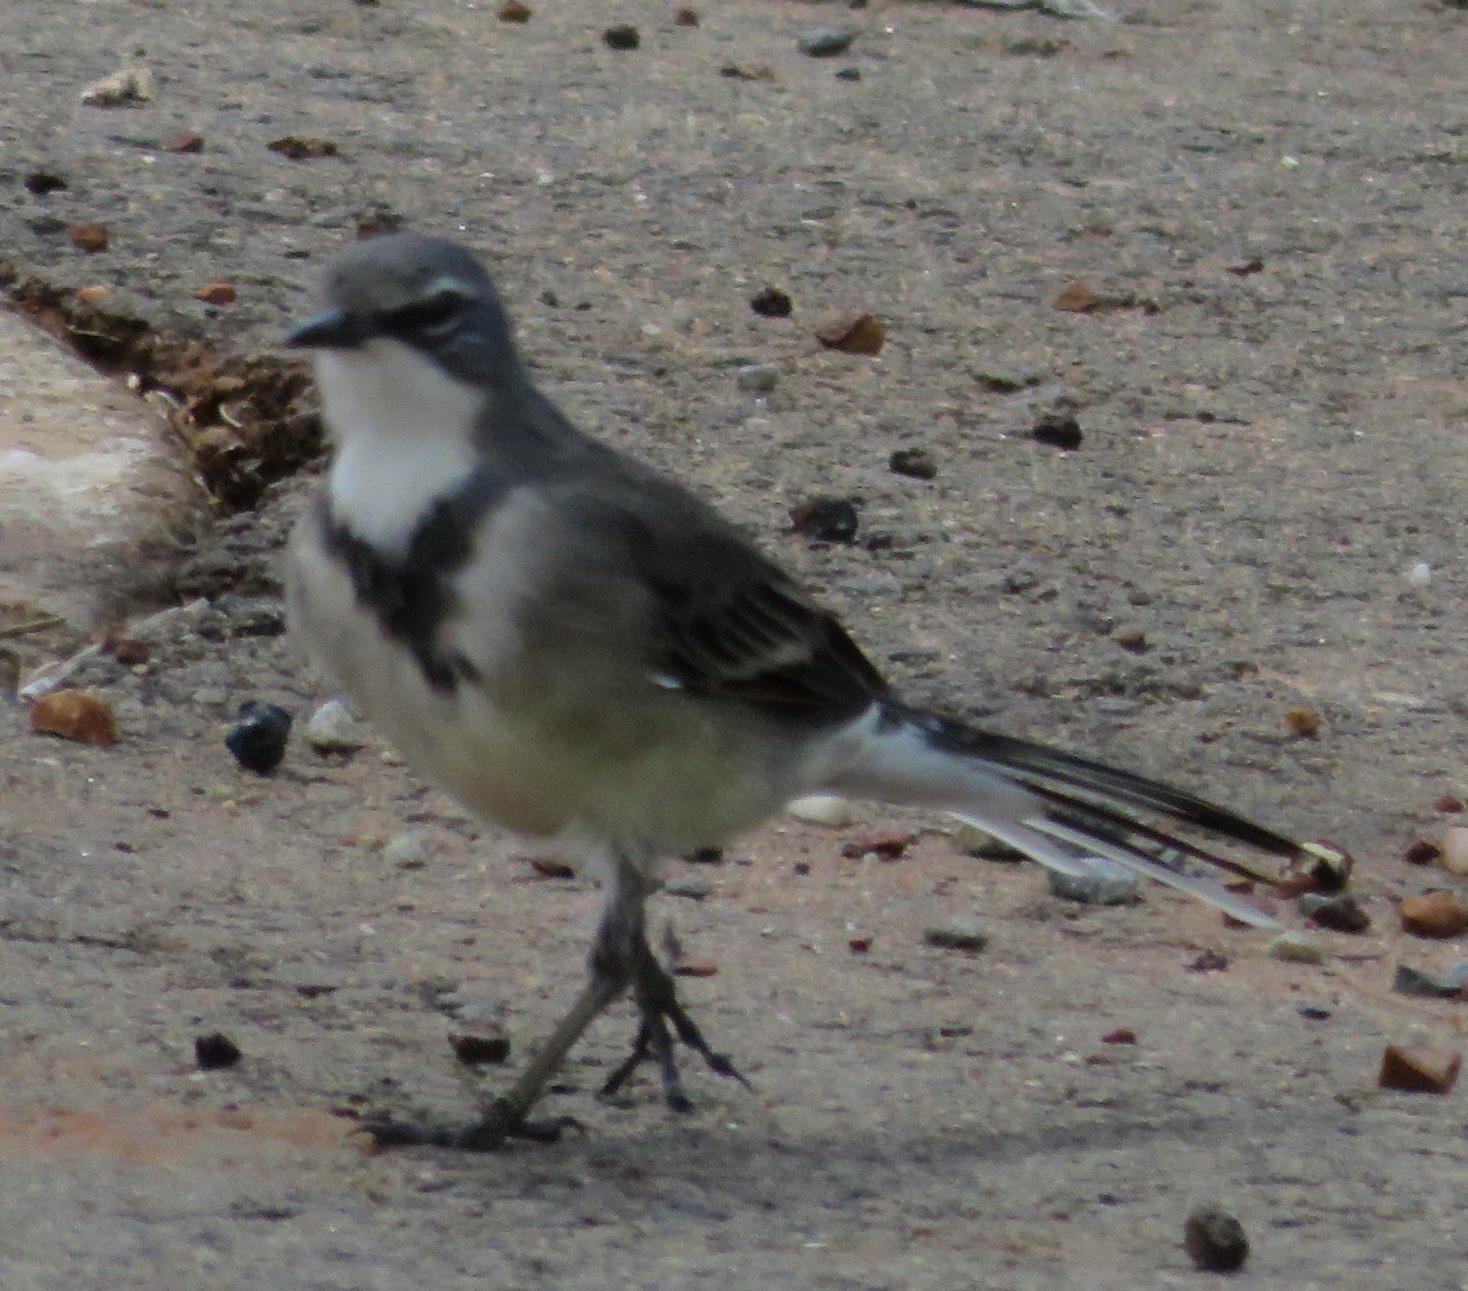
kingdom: Animalia
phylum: Chordata
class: Aves
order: Passeriformes
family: Motacillidae
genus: Motacilla
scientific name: Motacilla capensis
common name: Cape wagtail
